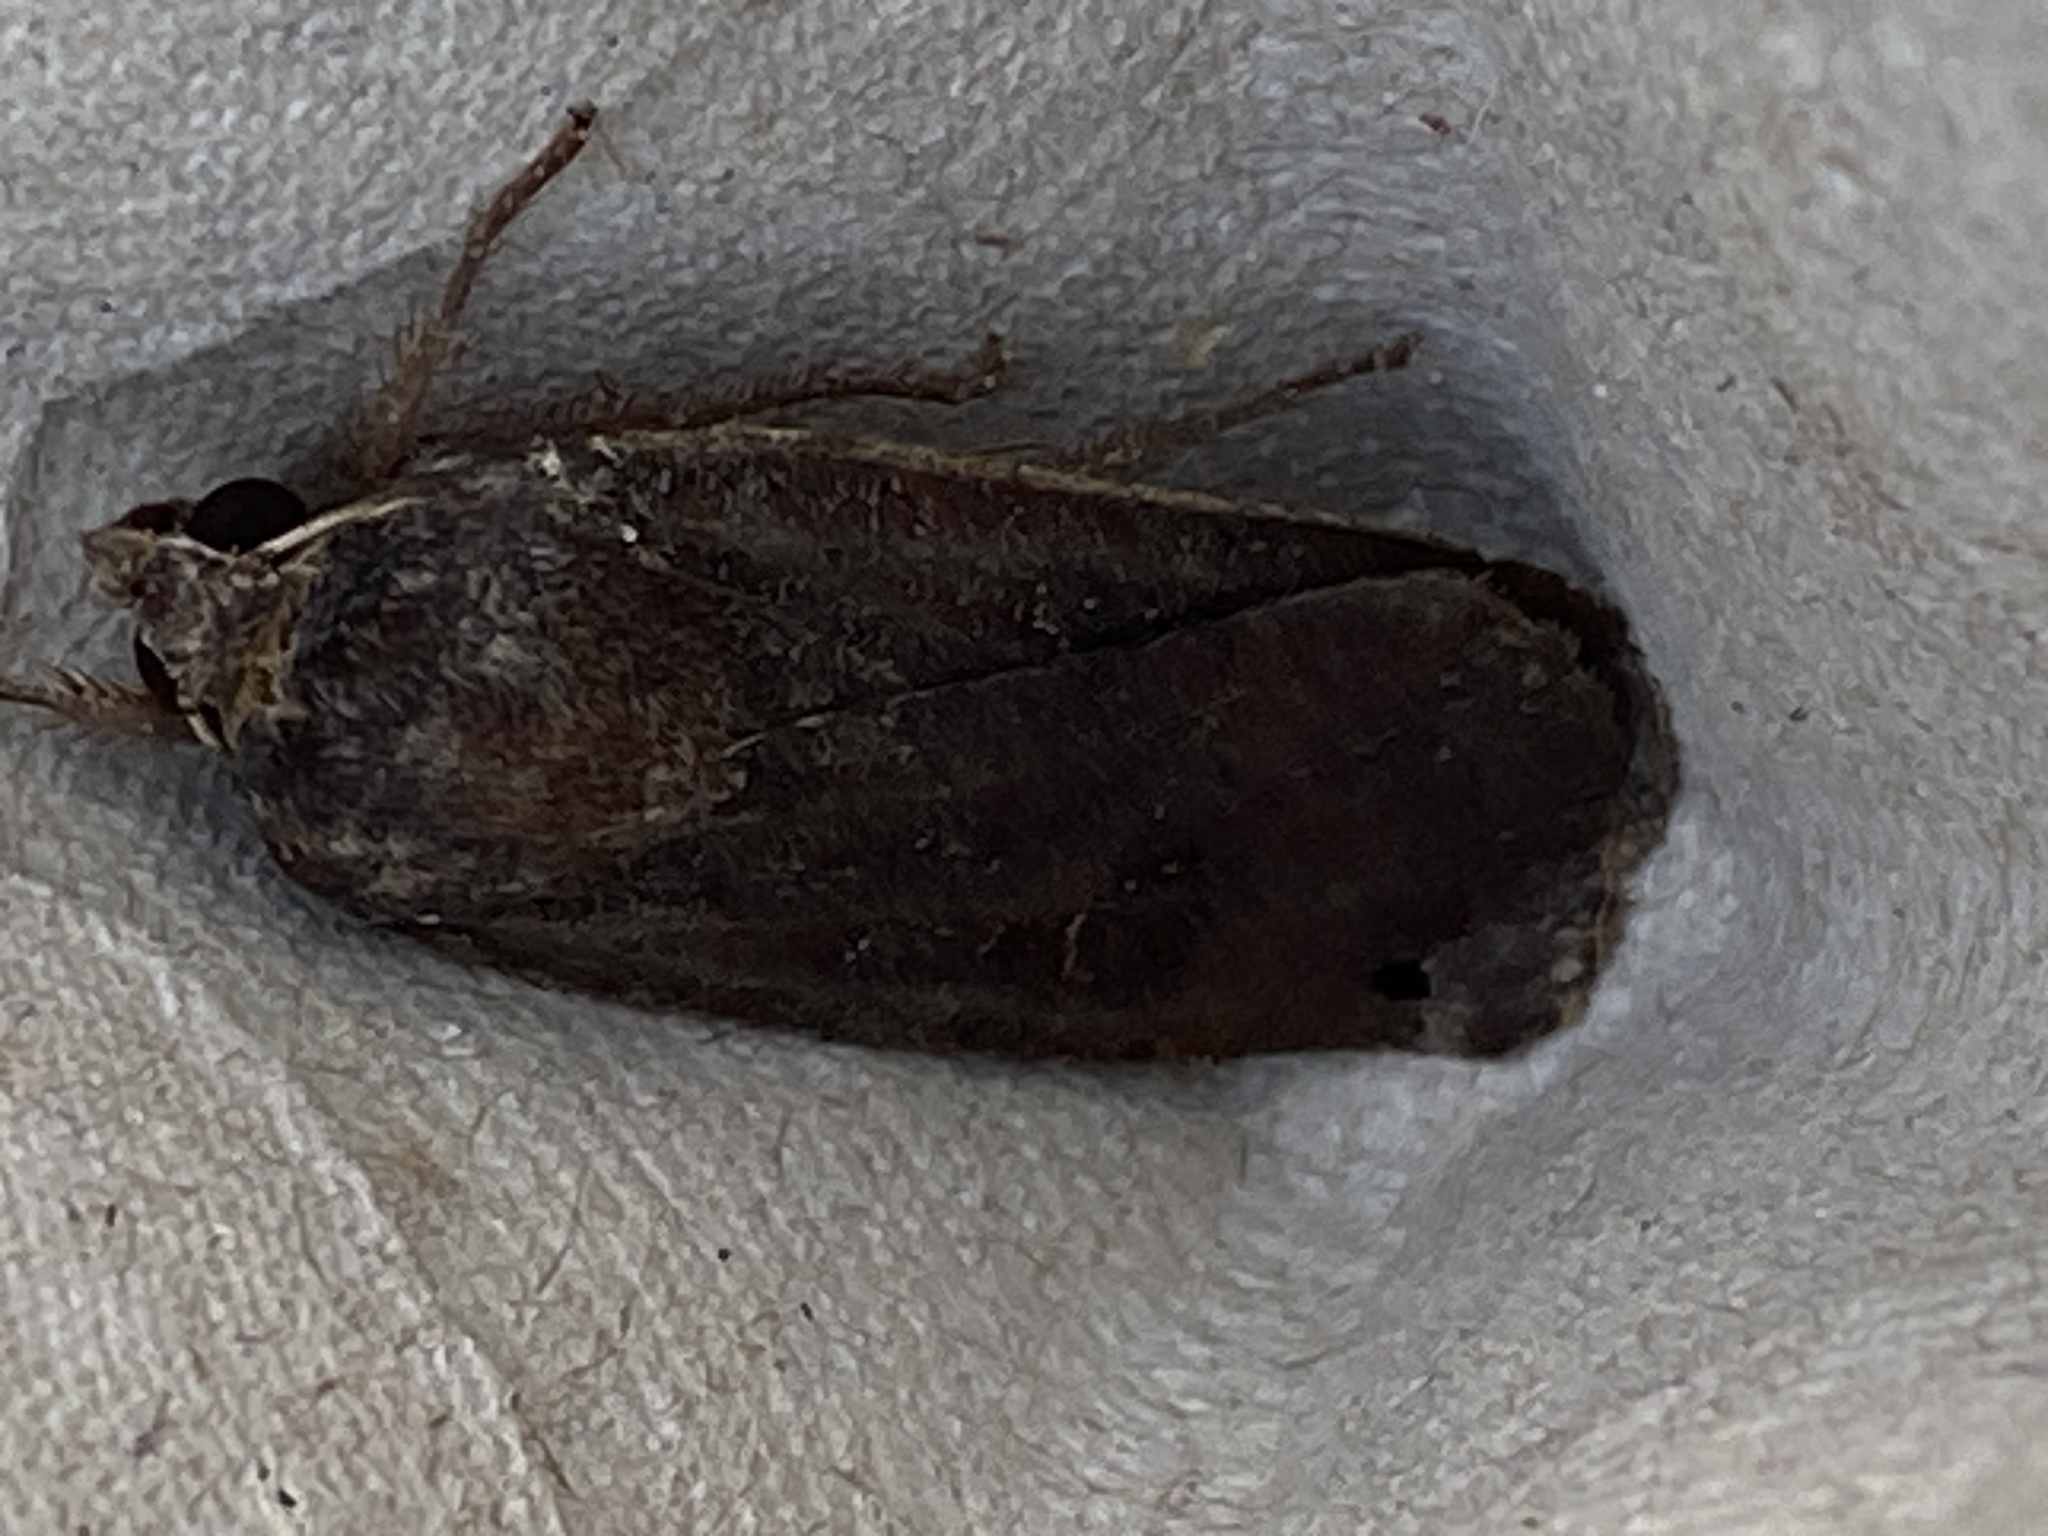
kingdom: Animalia
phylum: Arthropoda
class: Insecta
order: Lepidoptera
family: Noctuidae
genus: Noctua
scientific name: Noctua pronuba
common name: Large yellow underwing
